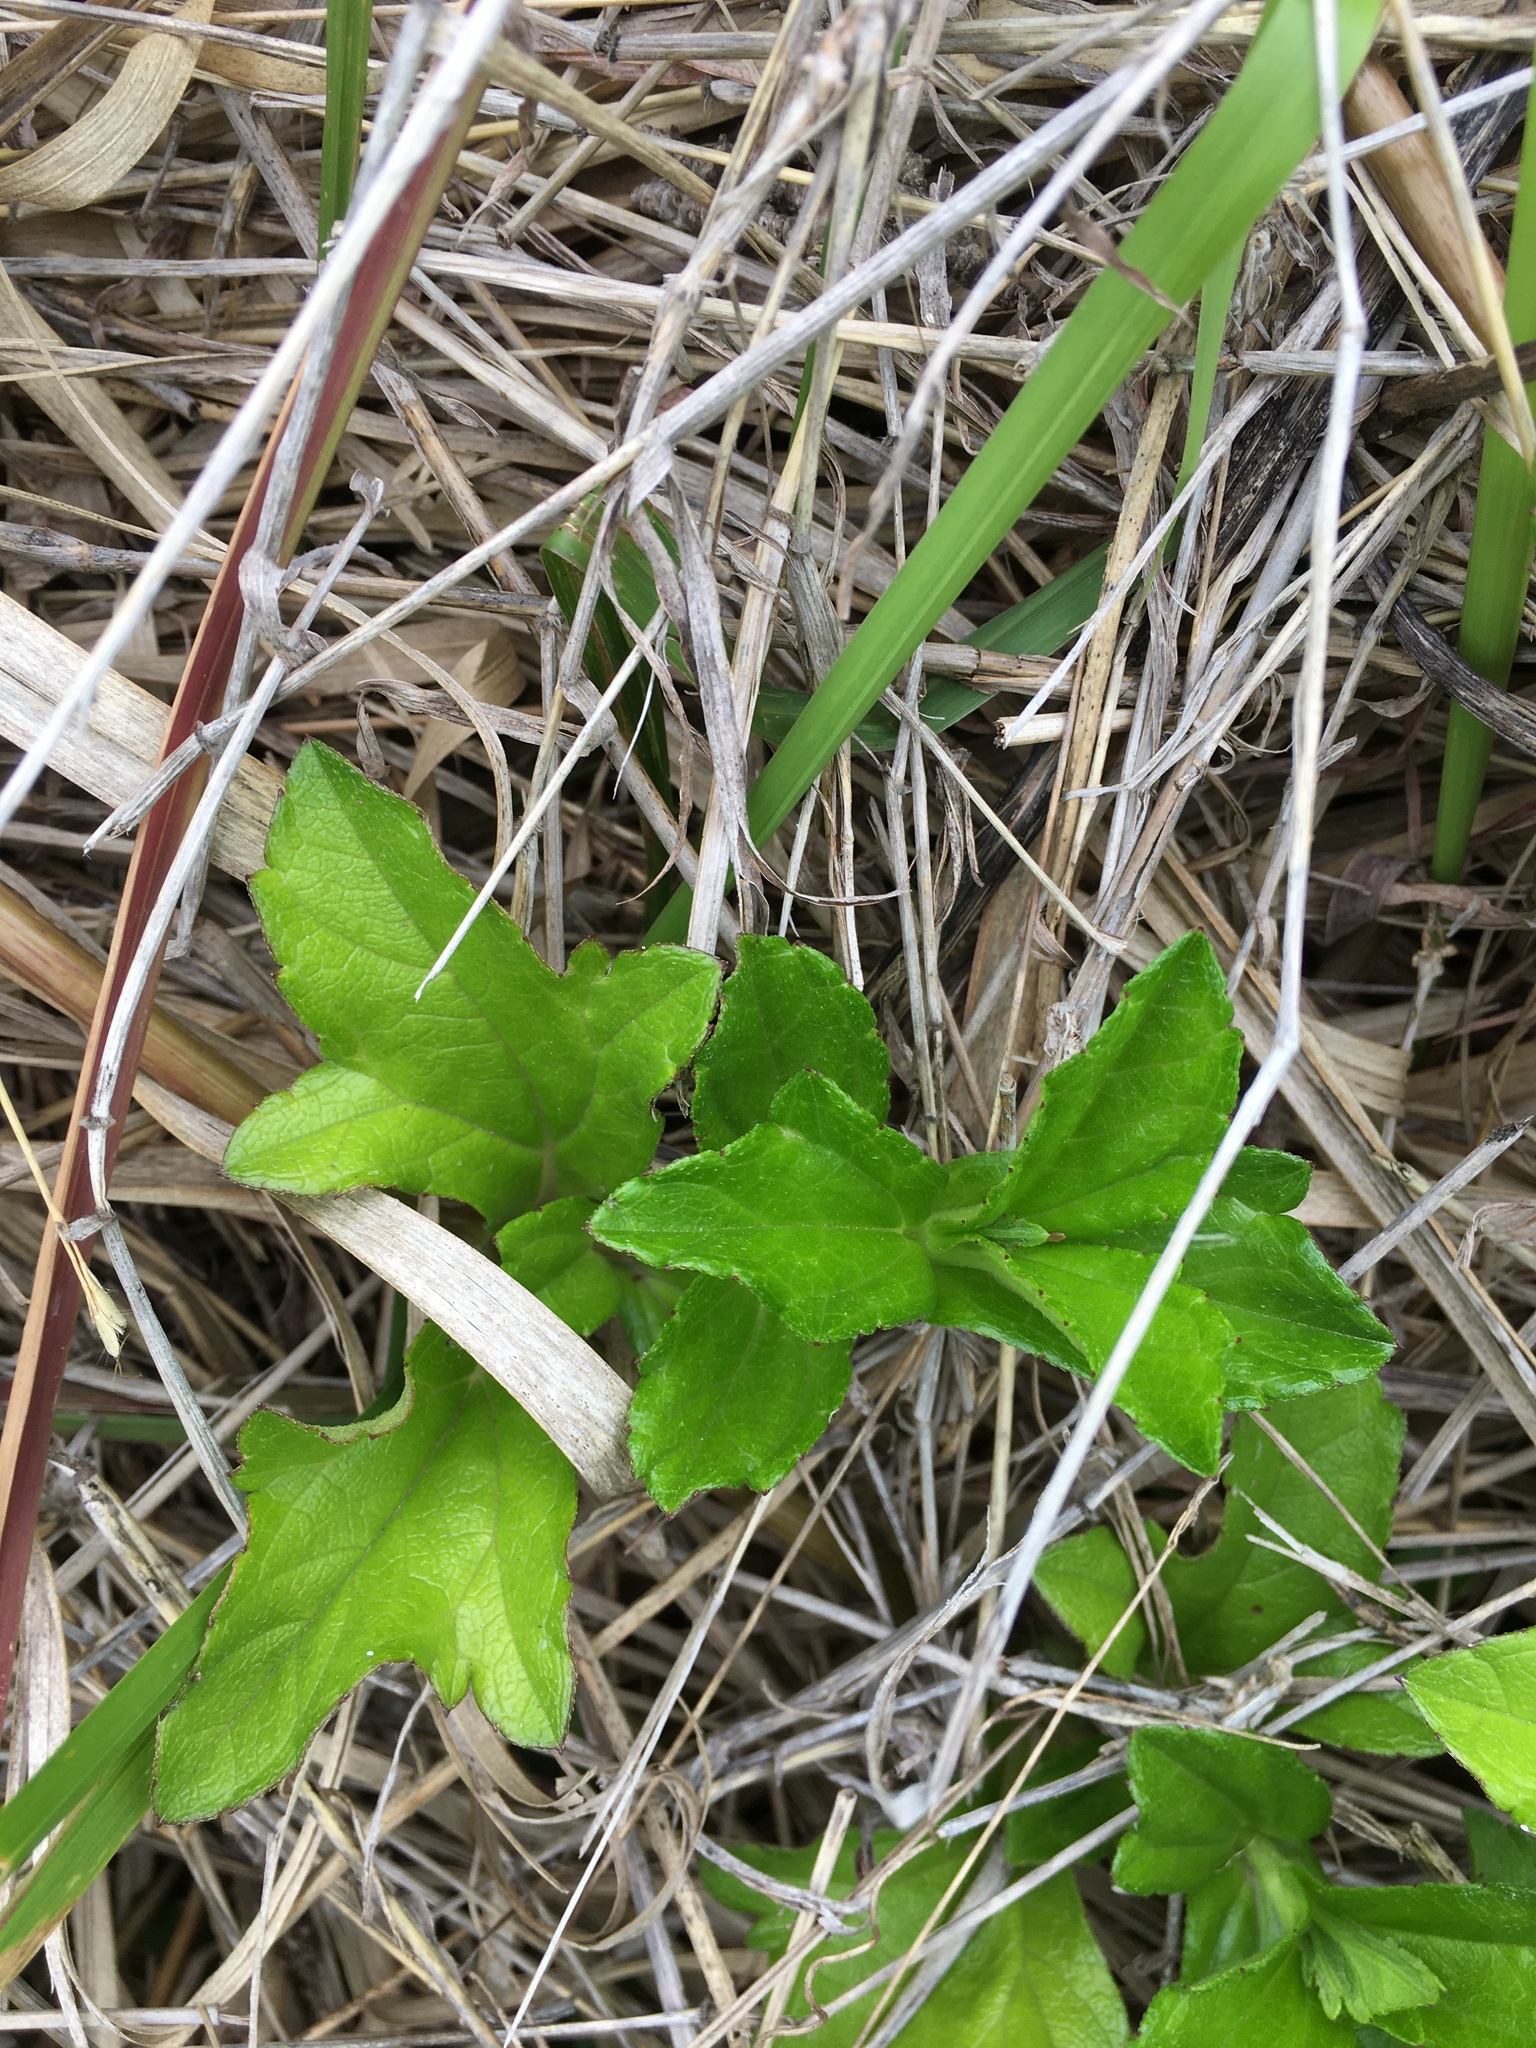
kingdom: Plantae
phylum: Tracheophyta
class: Magnoliopsida
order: Asterales
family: Asteraceae
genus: Sphagneticola
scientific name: Sphagneticola trilobata
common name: Bay biscayne creeping-oxeye
